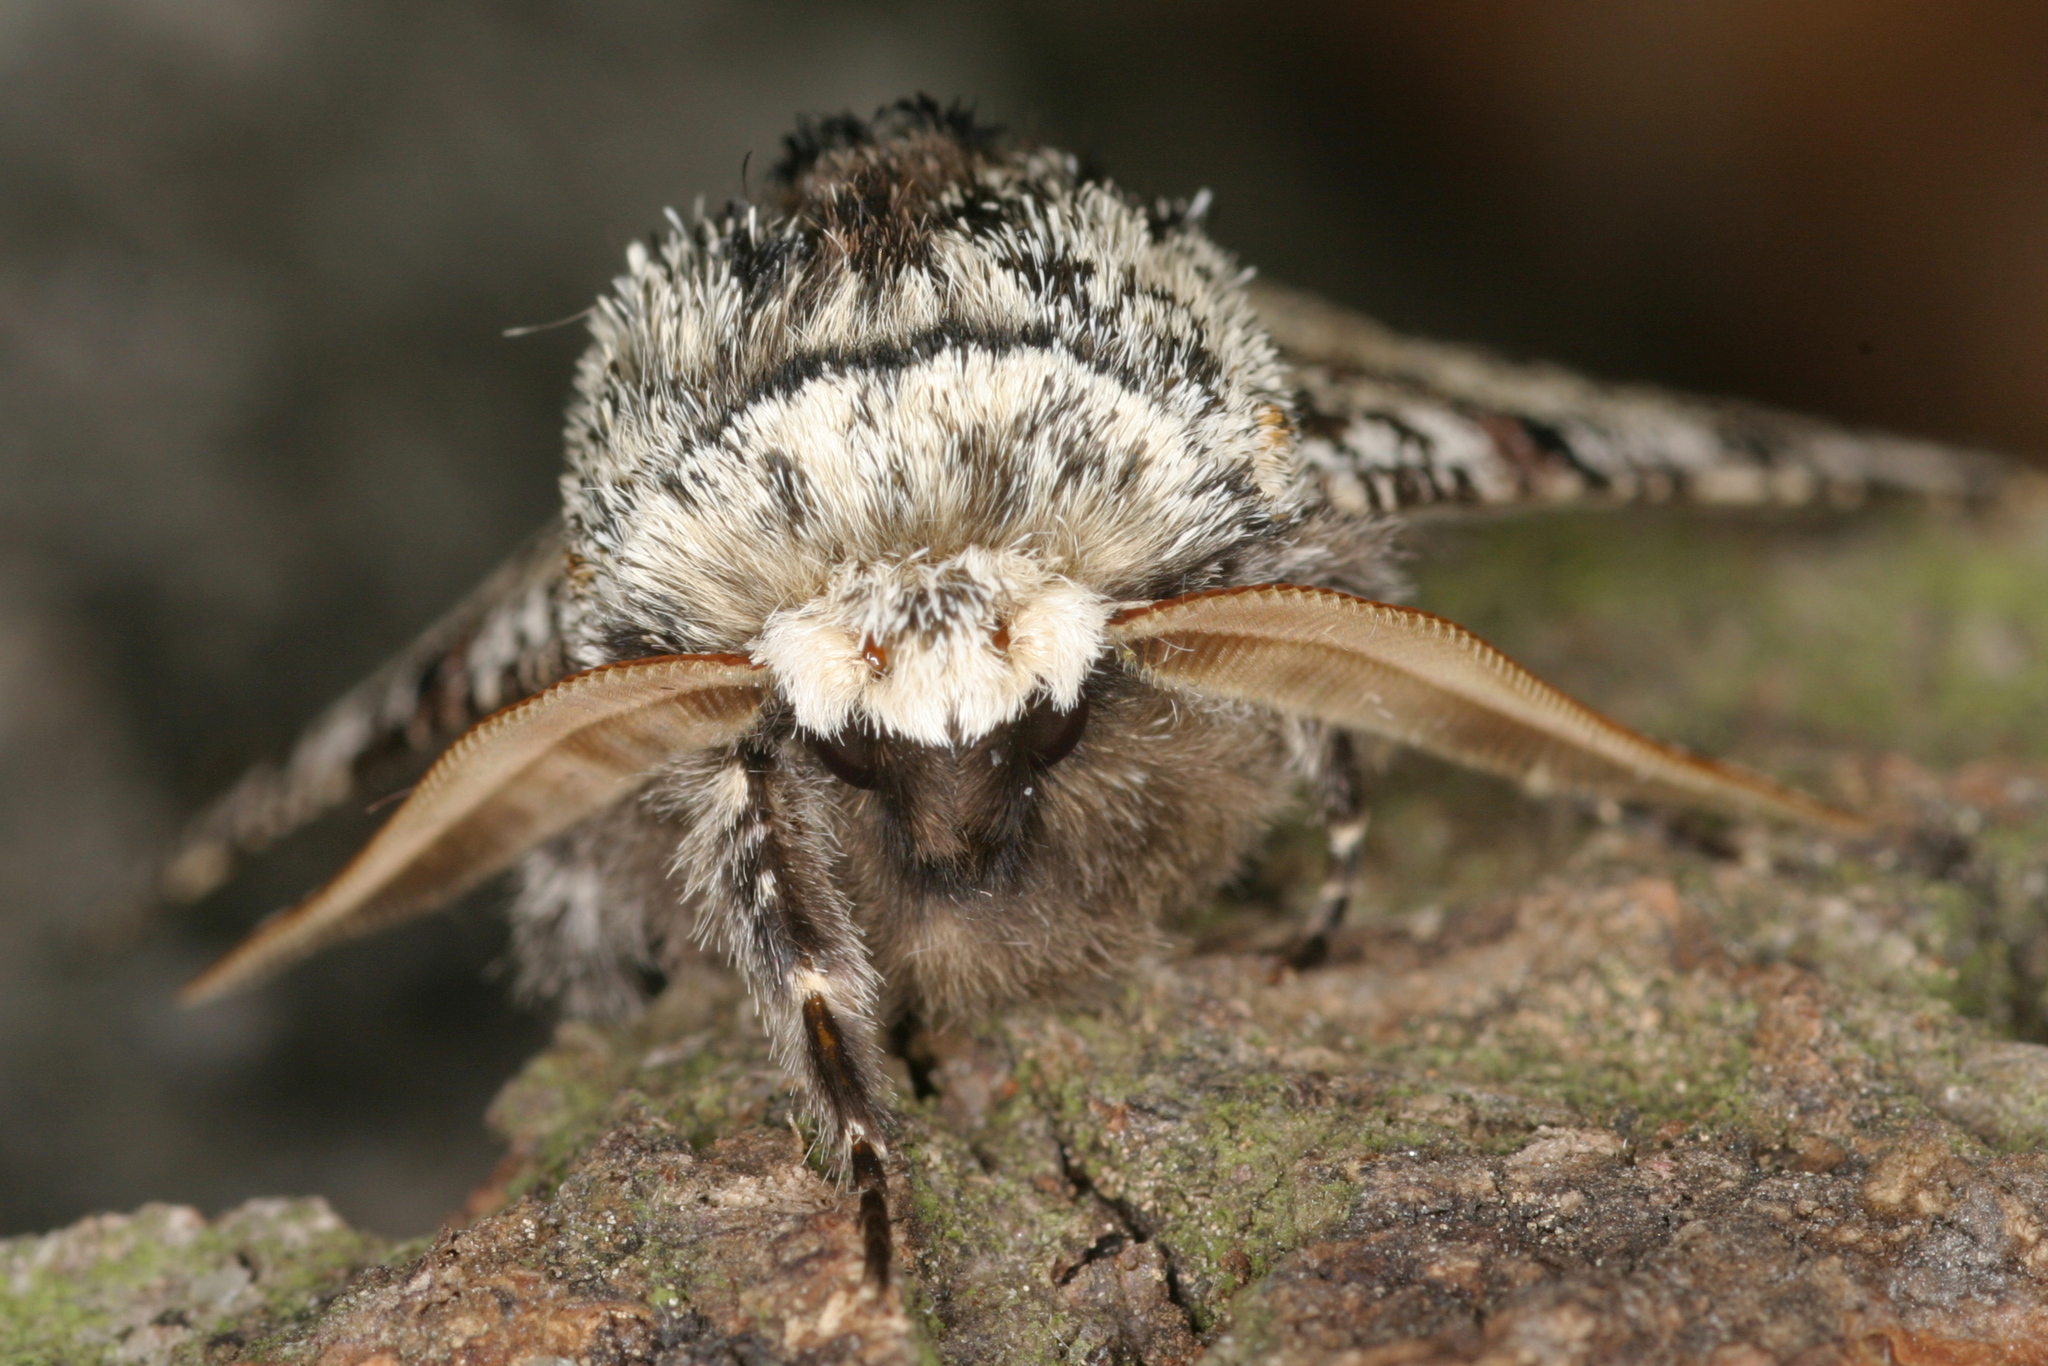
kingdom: Animalia
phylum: Arthropoda
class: Insecta
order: Lepidoptera
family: Geometridae
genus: Biston
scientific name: Biston strataria
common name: Oak beauty
